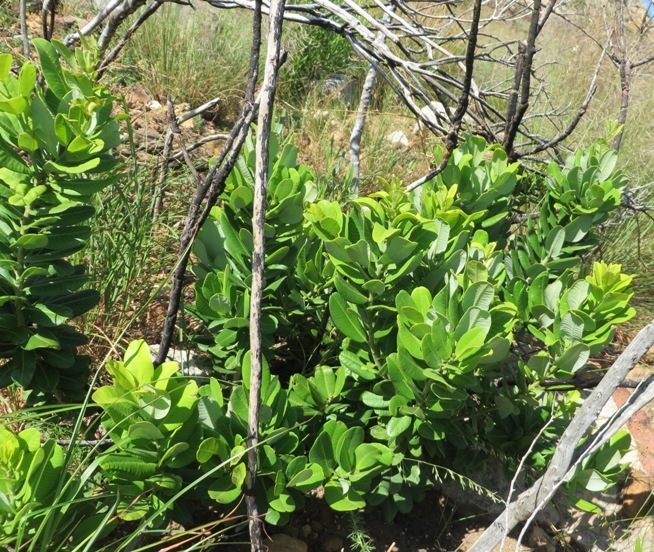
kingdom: Plantae
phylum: Tracheophyta
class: Magnoliopsida
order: Sapindales
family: Anacardiaceae
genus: Heeria
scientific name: Heeria argentea
